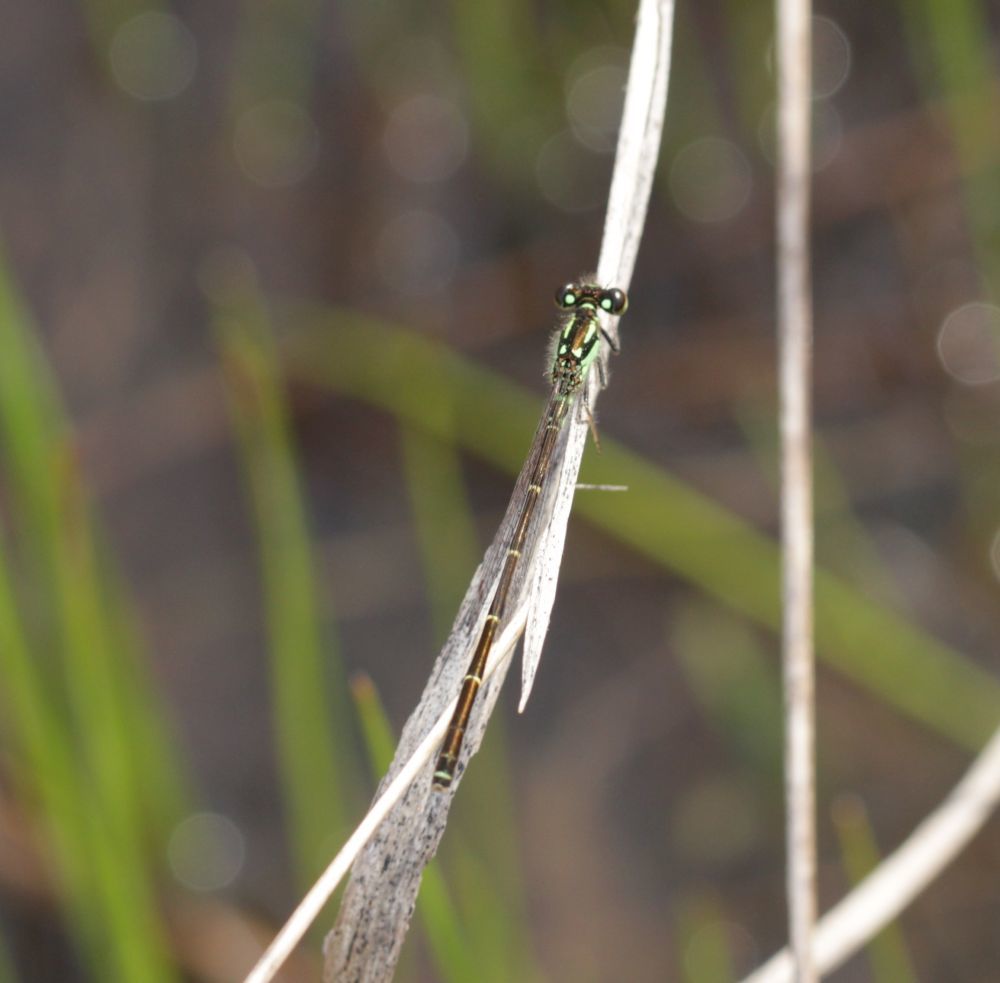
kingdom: Animalia
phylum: Arthropoda
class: Insecta
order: Odonata
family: Coenagrionidae
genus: Ischnura
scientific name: Ischnura posita
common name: Fragile forktail
